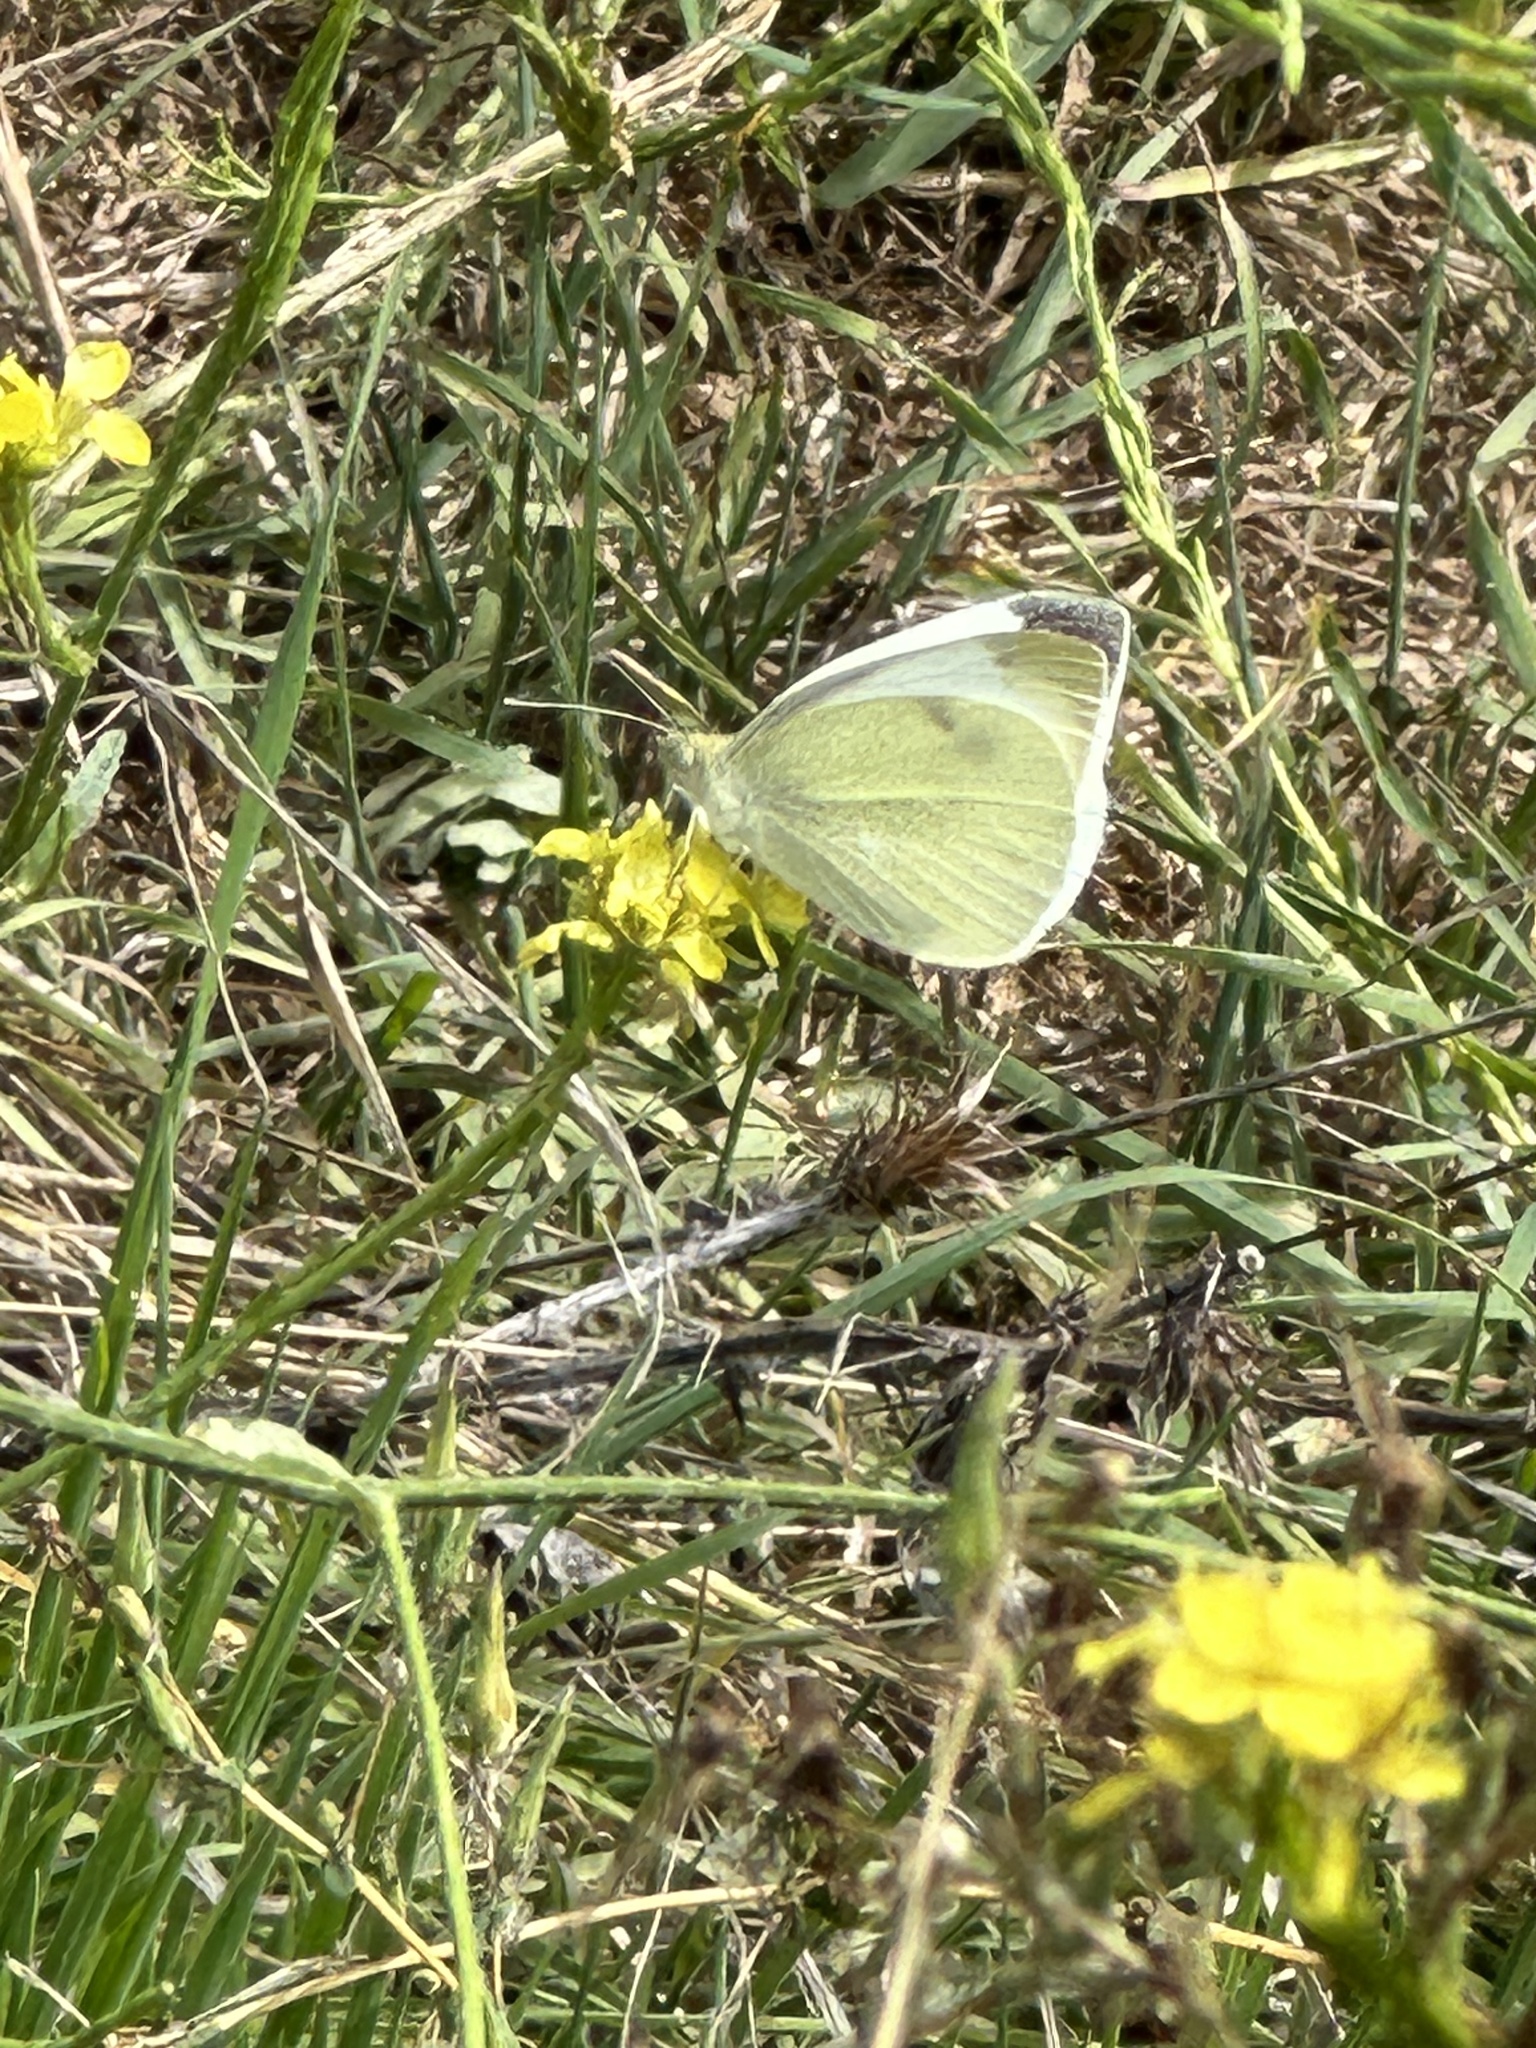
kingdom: Animalia
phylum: Arthropoda
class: Insecta
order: Lepidoptera
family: Pieridae
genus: Pieris
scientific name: Pieris rapae
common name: Small white
